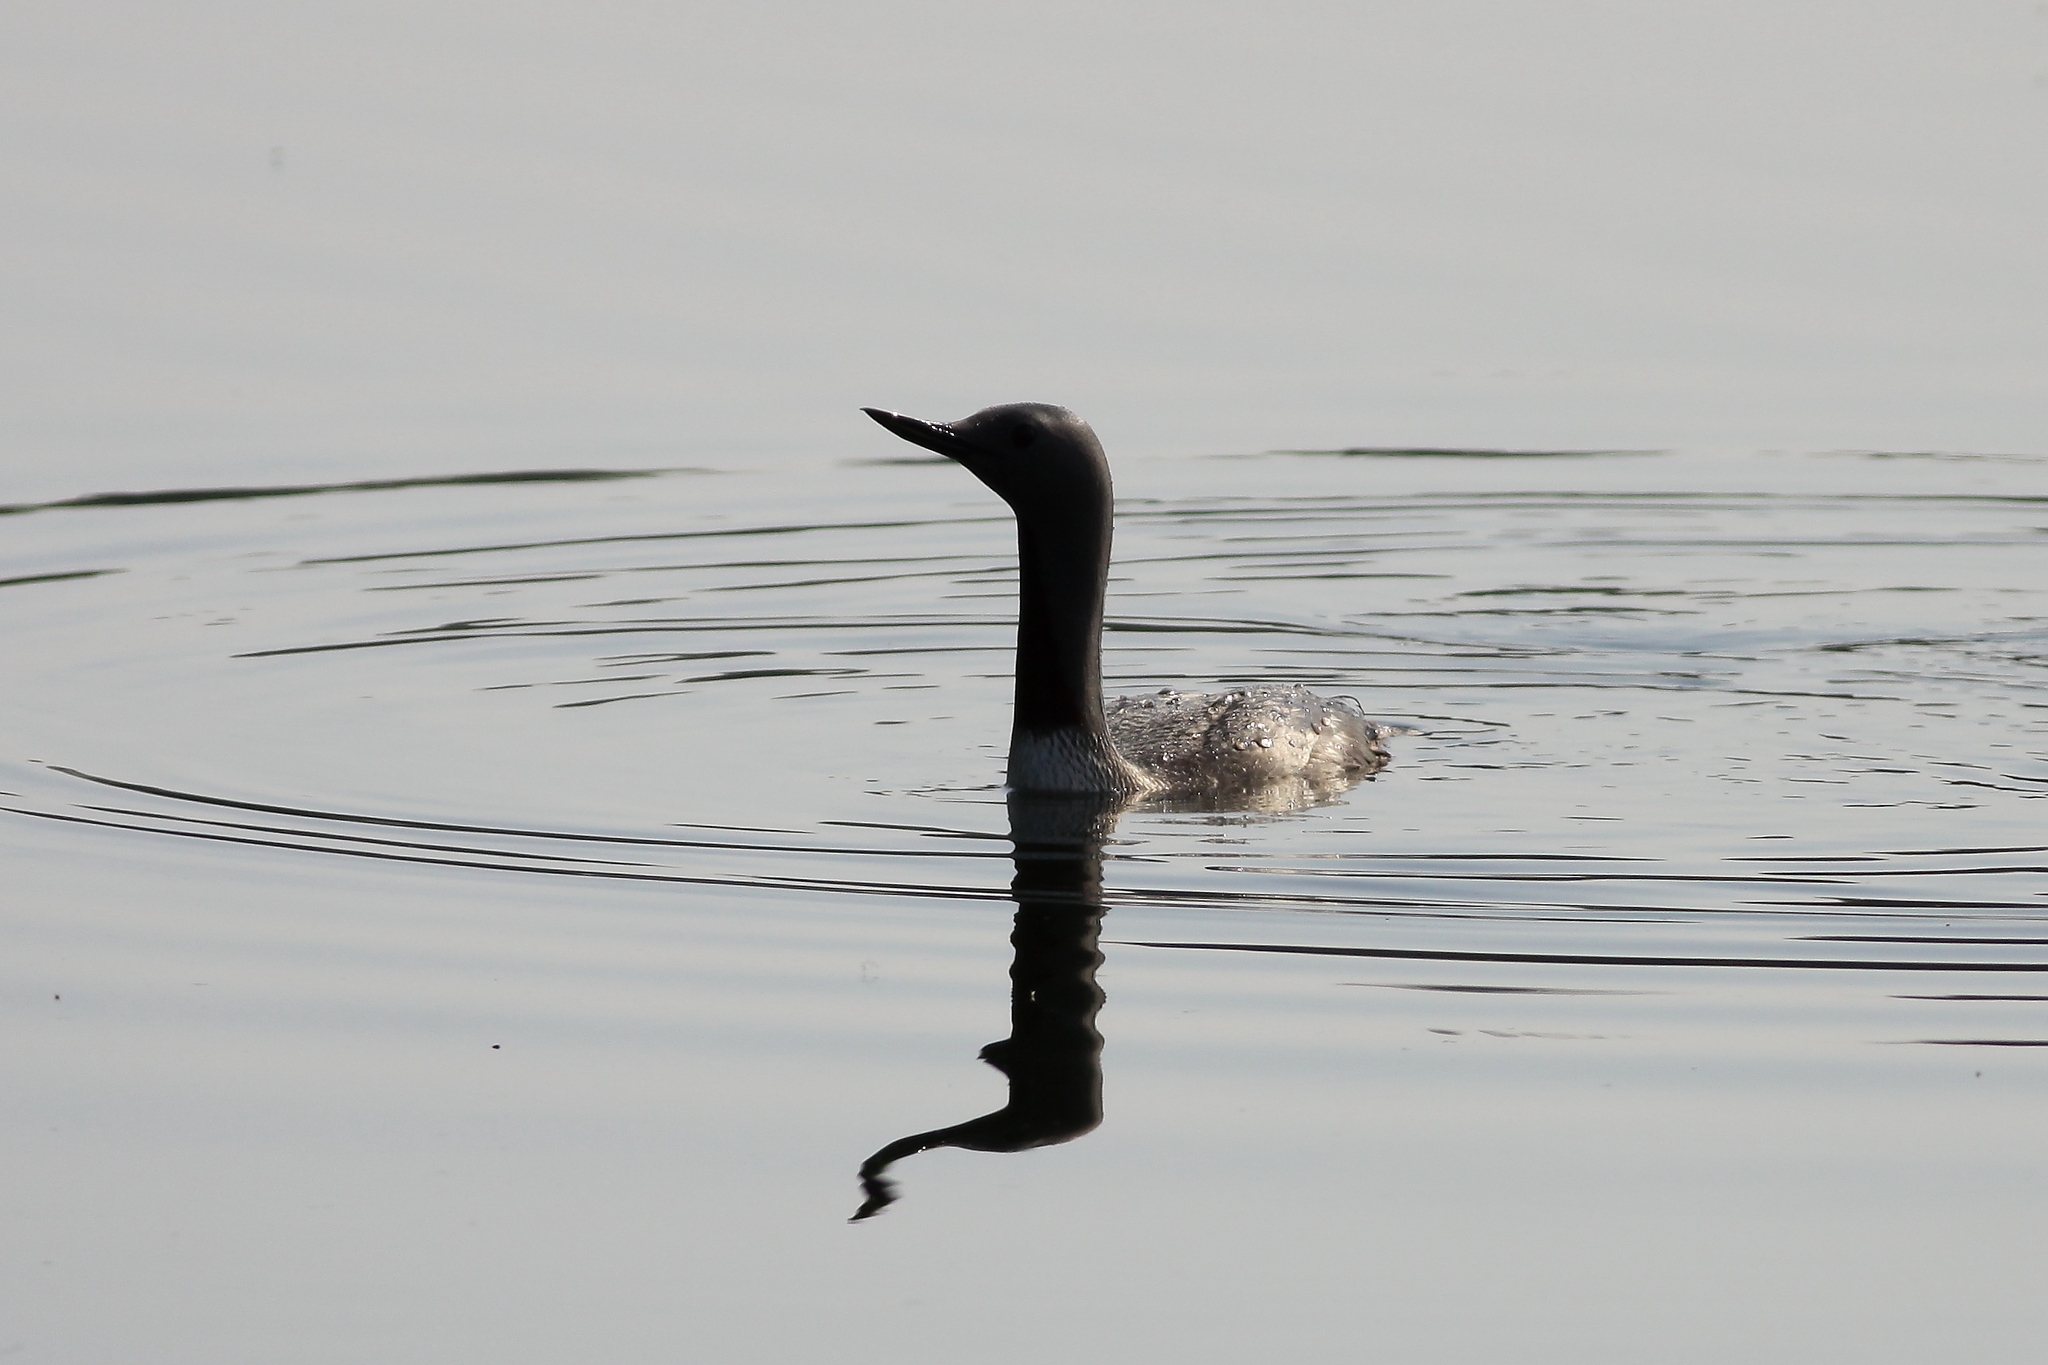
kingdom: Animalia
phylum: Chordata
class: Aves
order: Gaviiformes
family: Gaviidae
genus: Gavia
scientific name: Gavia stellata
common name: Red-throated loon
